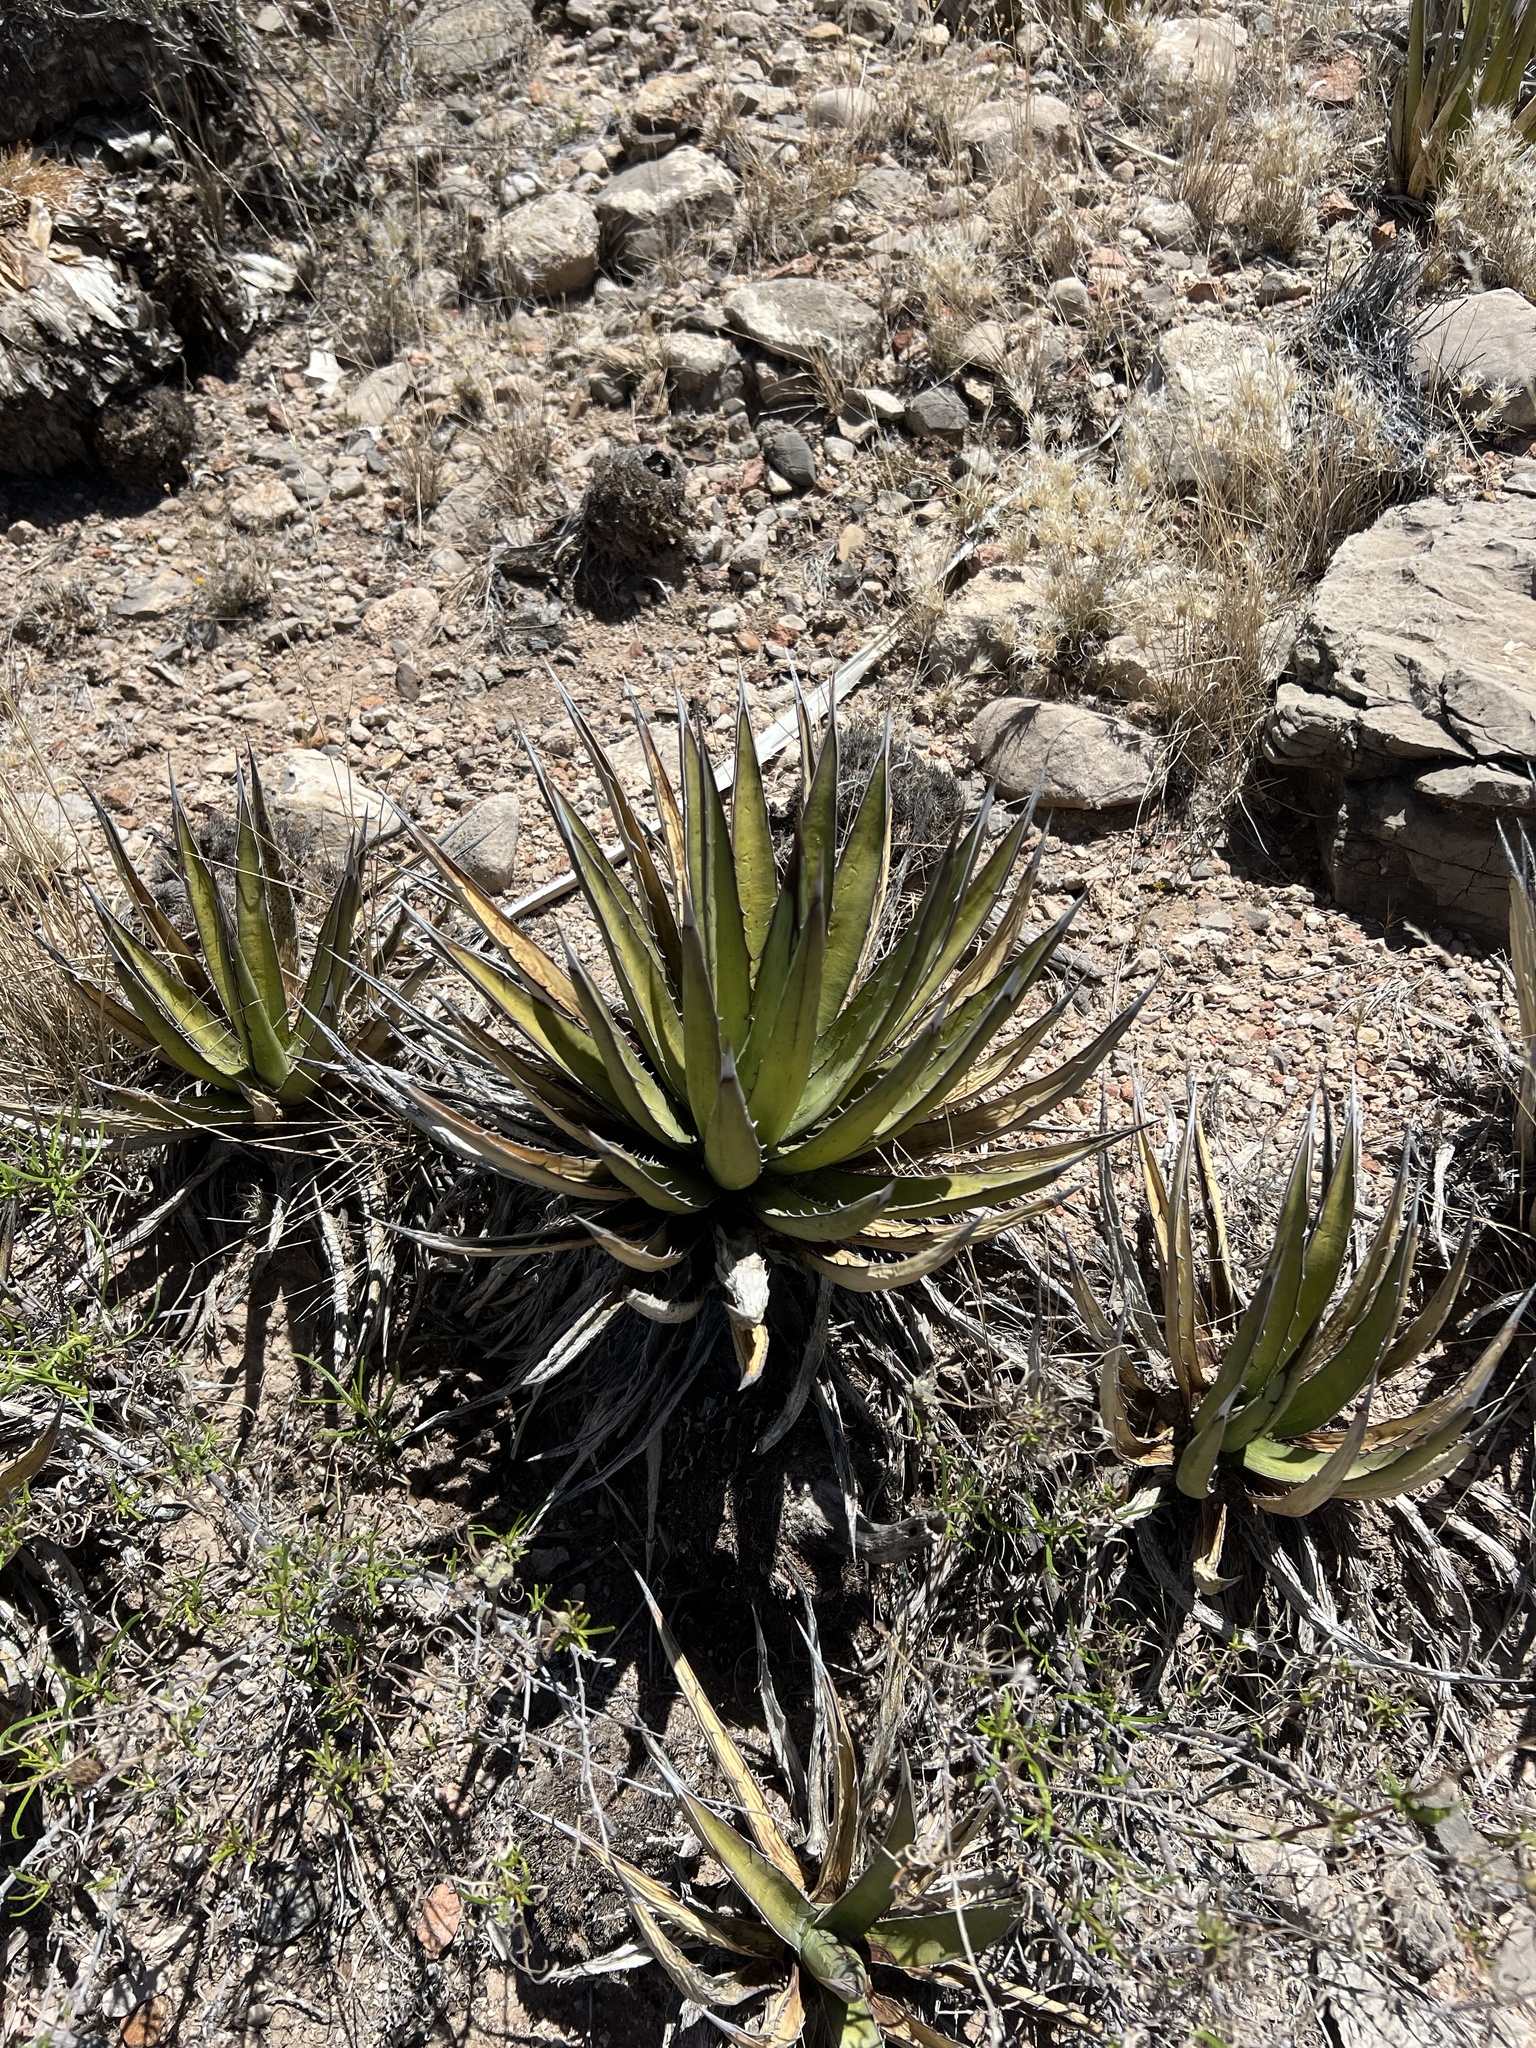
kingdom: Plantae
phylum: Tracheophyta
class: Liliopsida
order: Asparagales
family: Asparagaceae
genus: Agave
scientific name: Agave lechuguilla
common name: Lecheguilla agave
